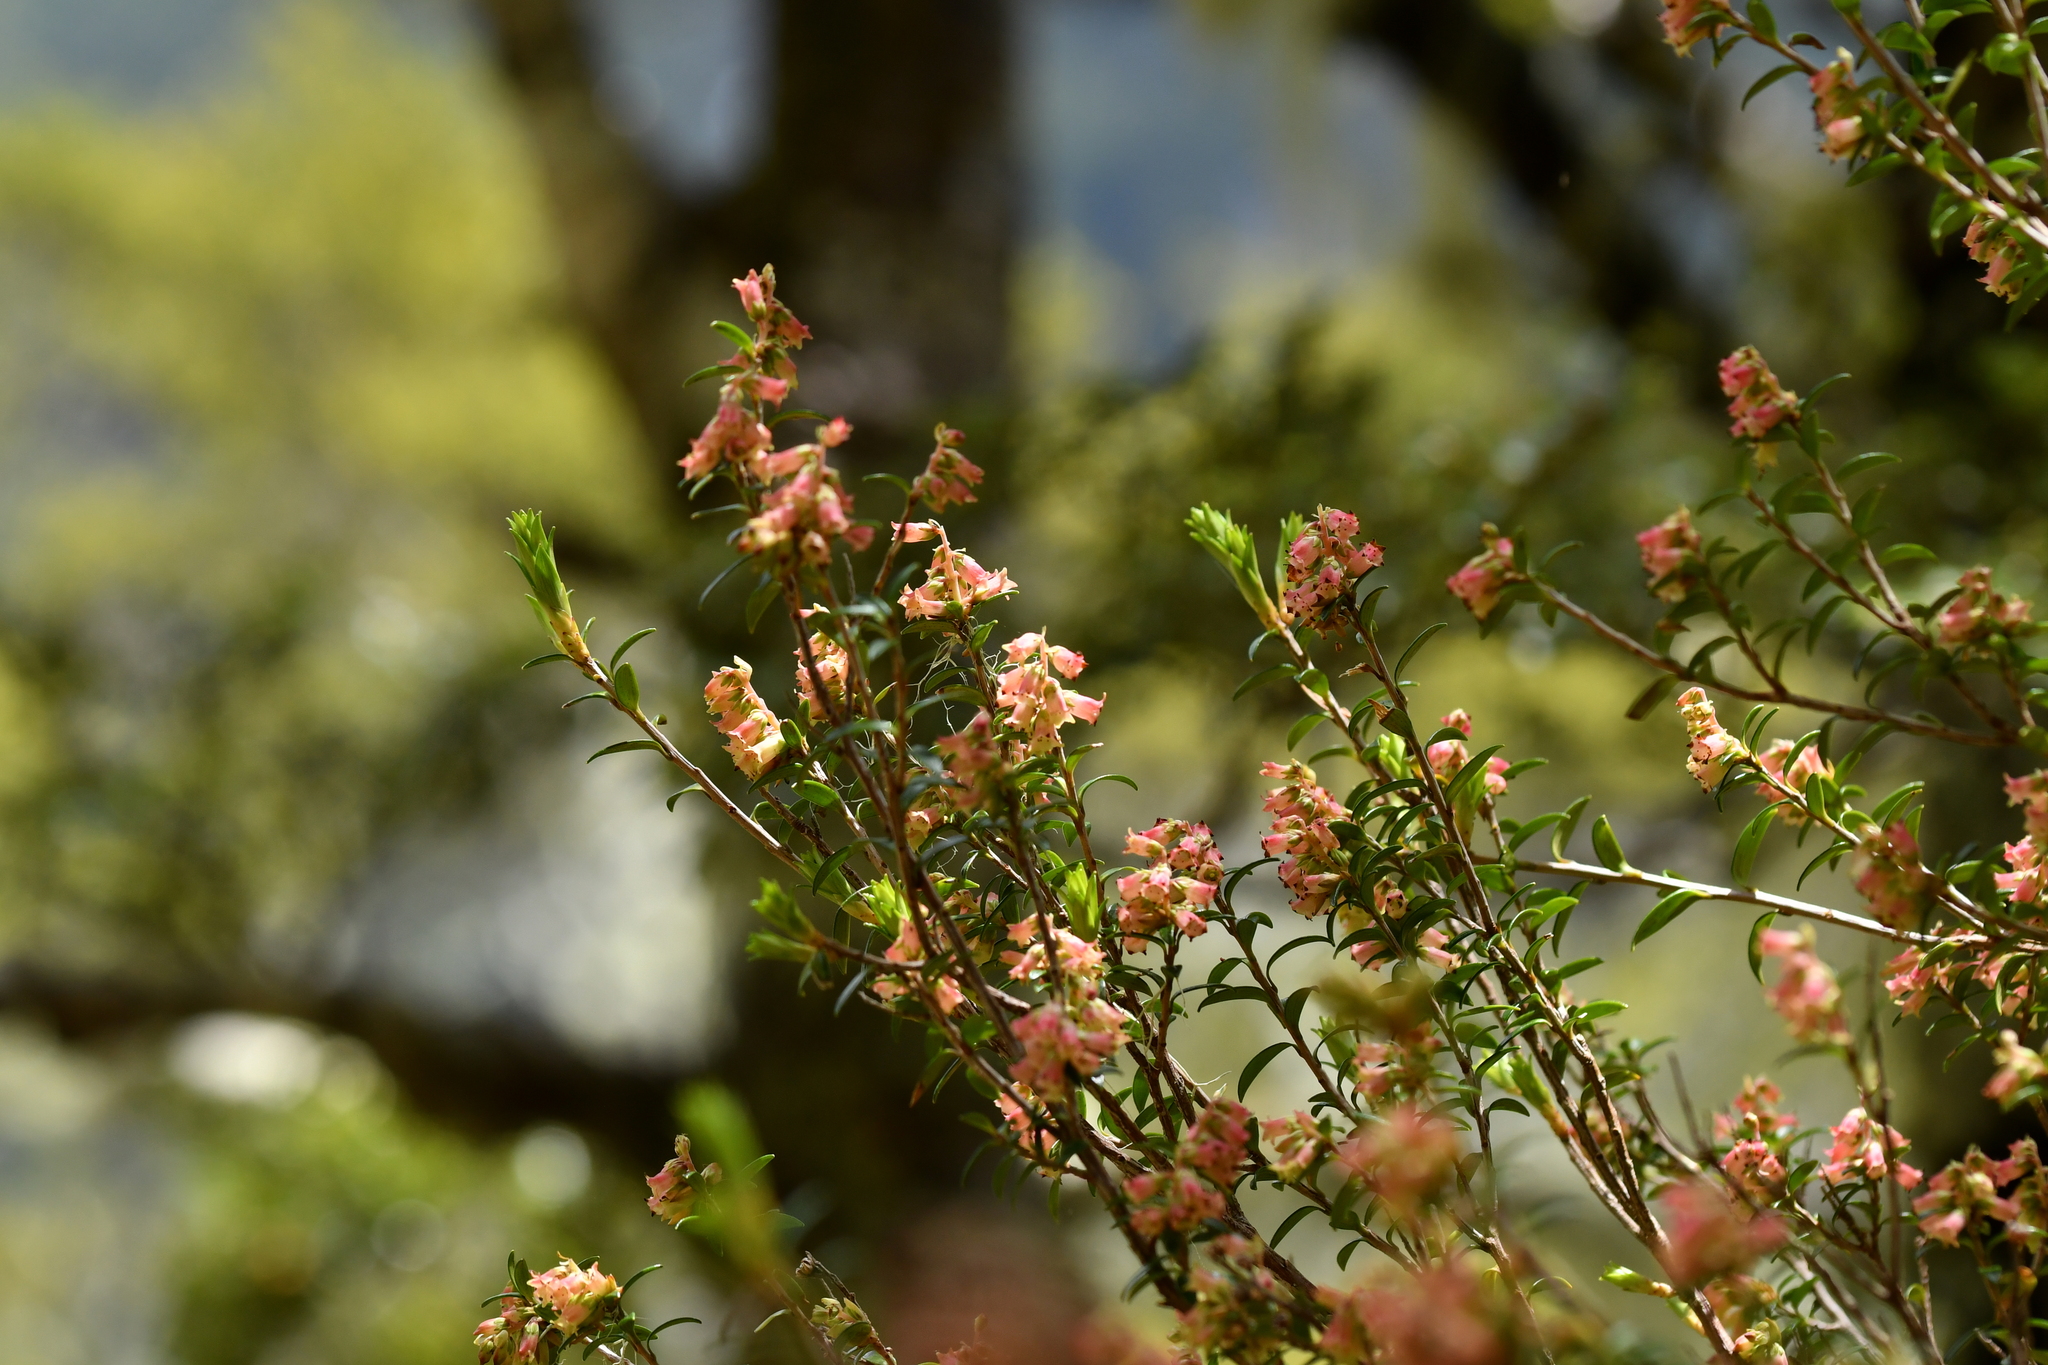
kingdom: Plantae
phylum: Tracheophyta
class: Magnoliopsida
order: Ericales
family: Ericaceae
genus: Archeria
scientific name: Archeria traversii
